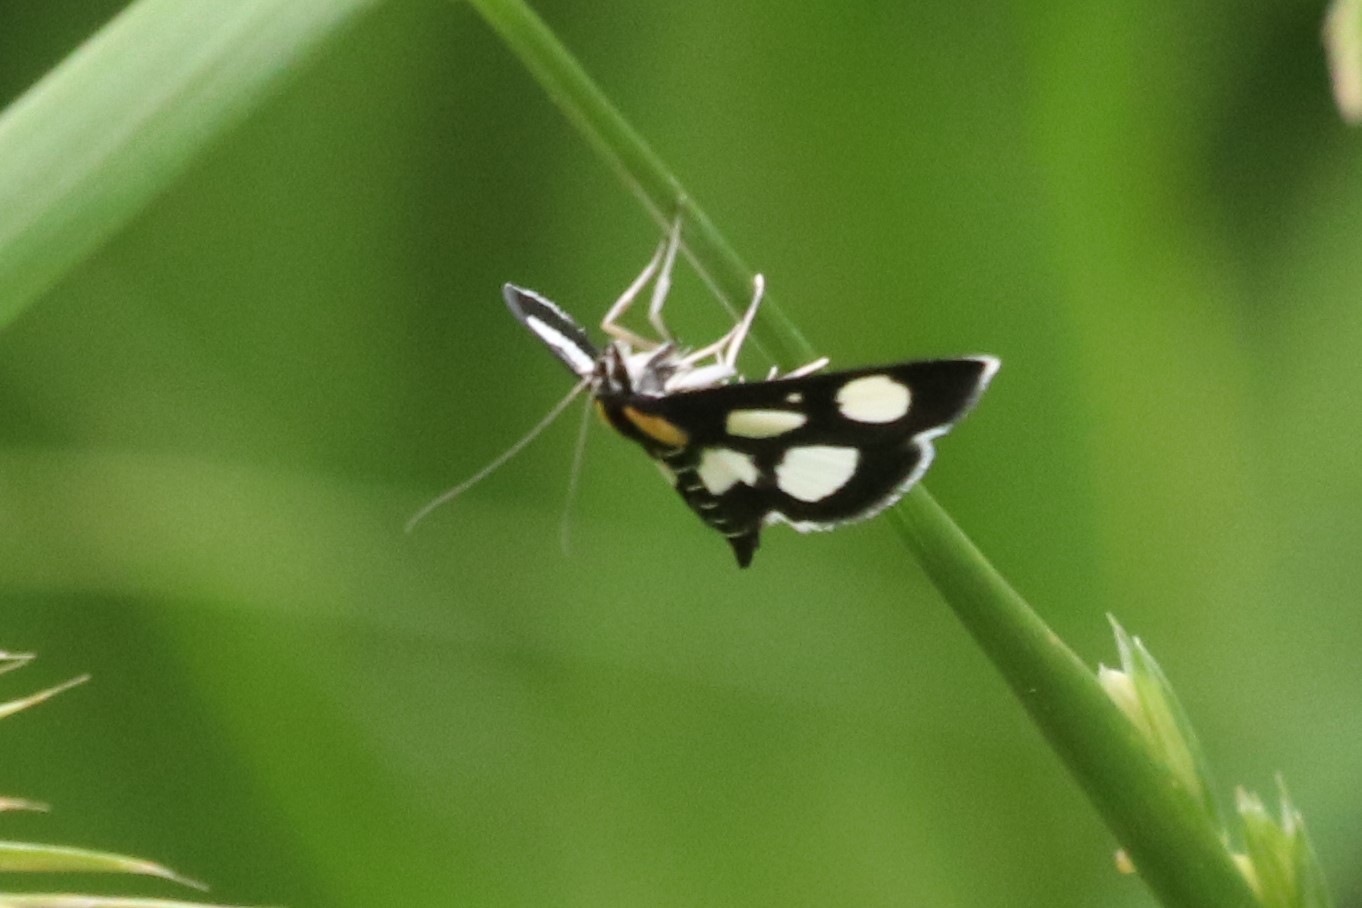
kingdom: Animalia
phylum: Arthropoda
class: Insecta
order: Lepidoptera
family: Crambidae
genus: Anania
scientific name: Anania funebris
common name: White-spotted sable moth
